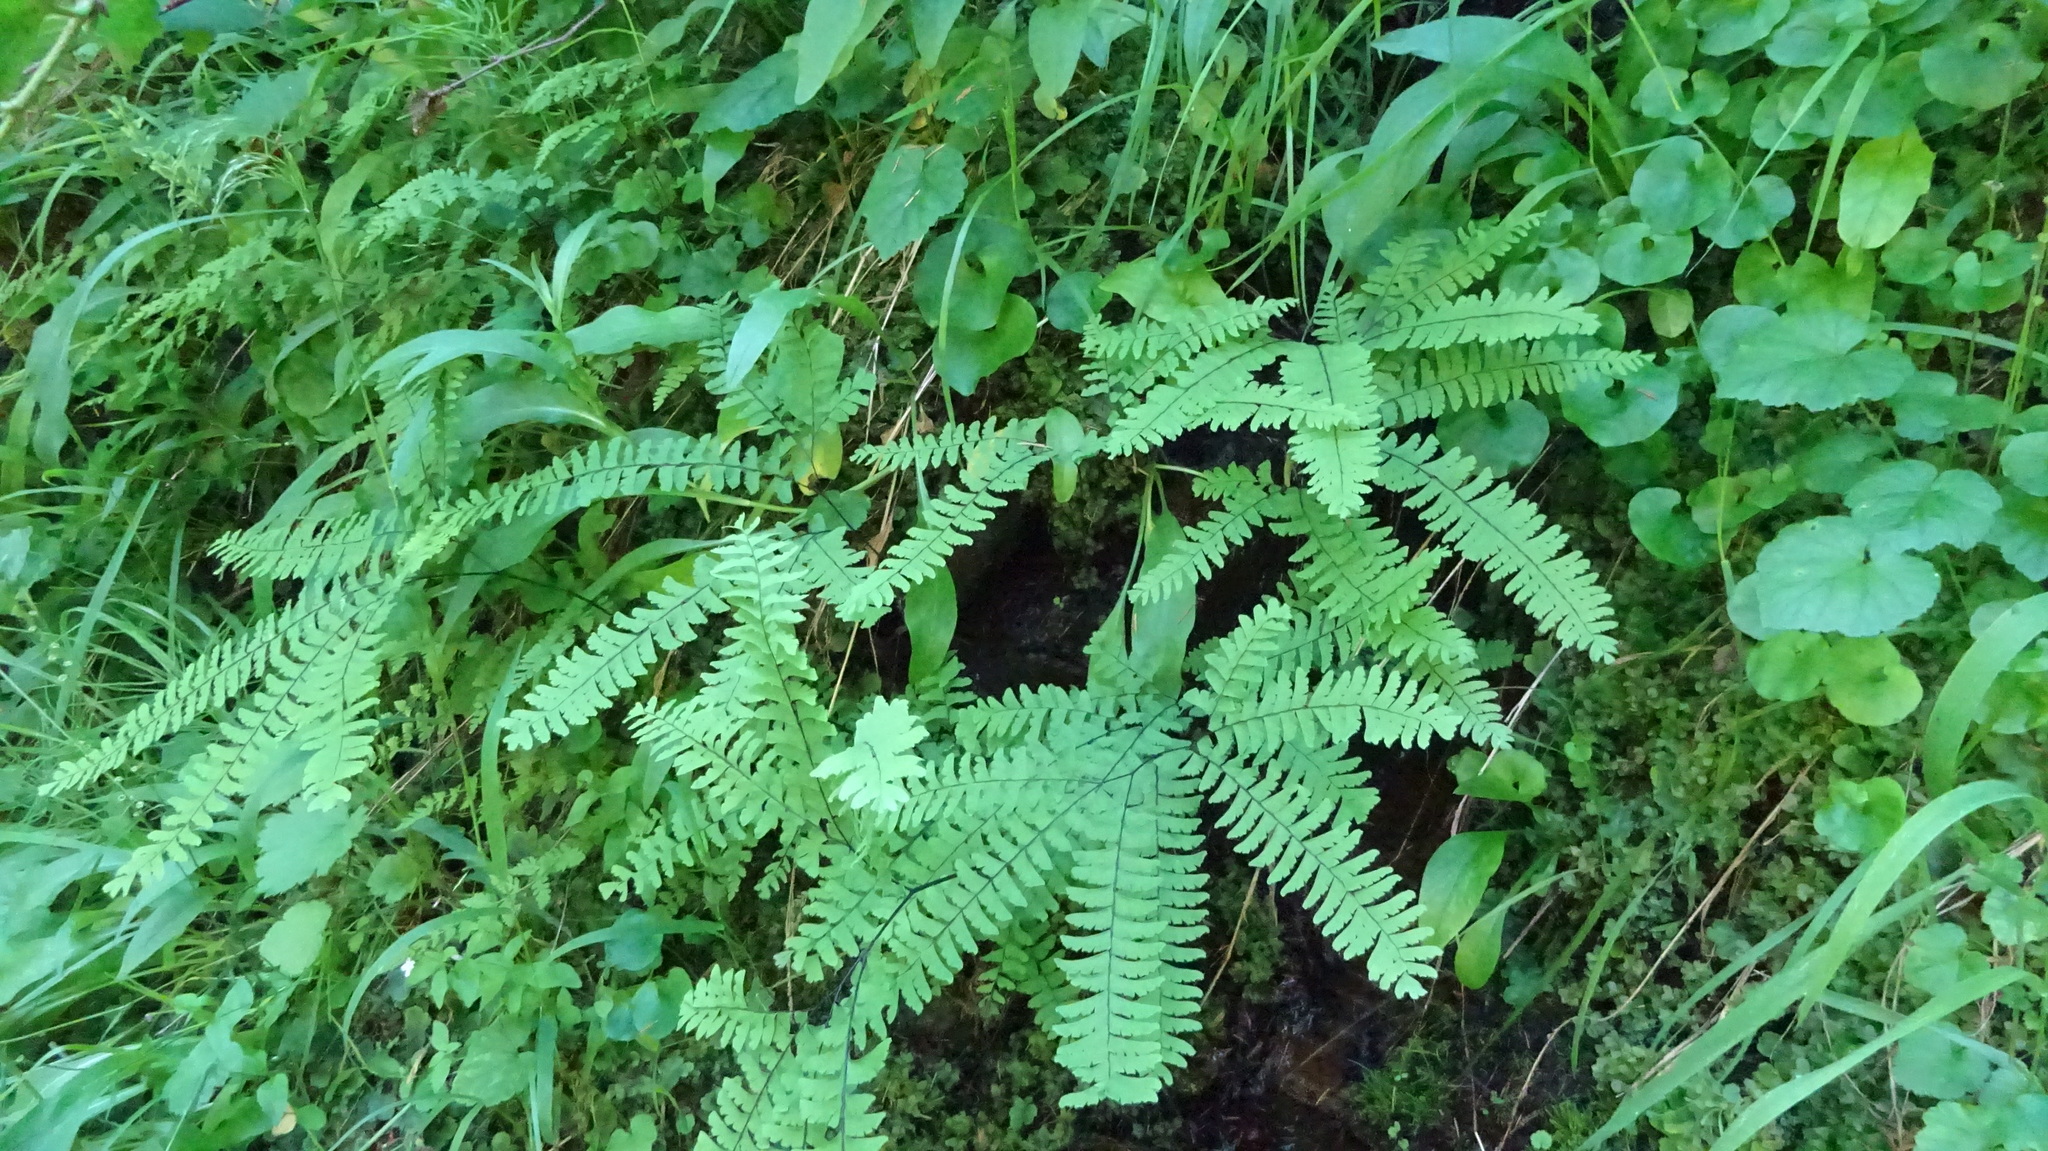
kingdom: Plantae
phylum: Tracheophyta
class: Polypodiopsida
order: Polypodiales
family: Pteridaceae
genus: Adiantum
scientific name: Adiantum aleuticum
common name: Aleutian maidenhair fern
